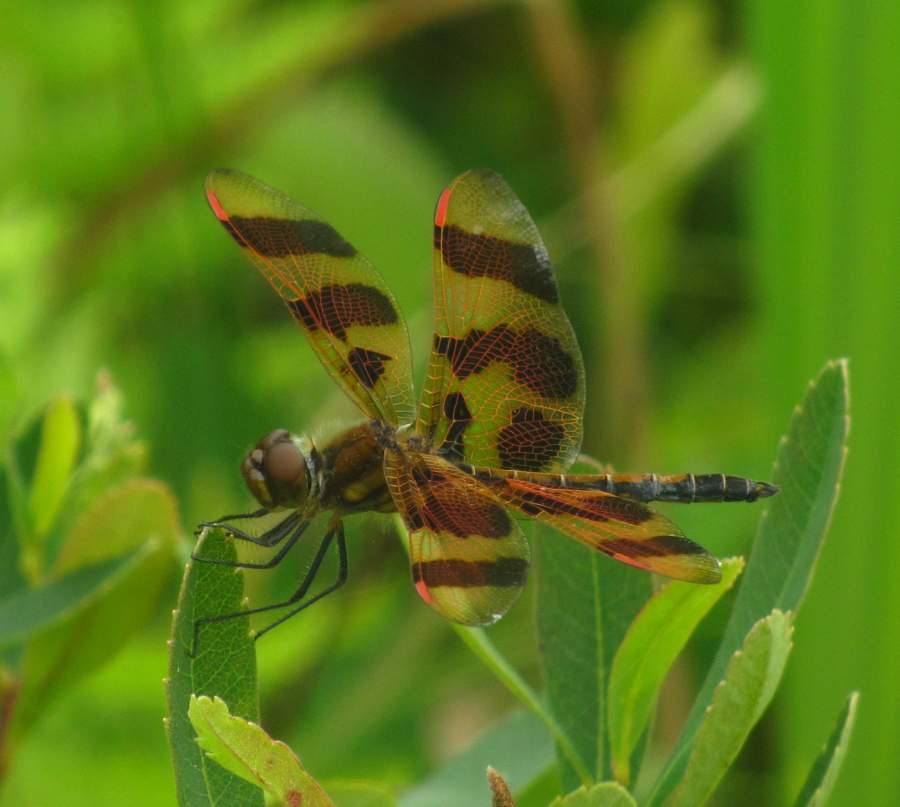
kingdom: Animalia
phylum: Arthropoda
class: Insecta
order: Odonata
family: Libellulidae
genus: Celithemis
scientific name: Celithemis eponina
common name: Halloween pennant
